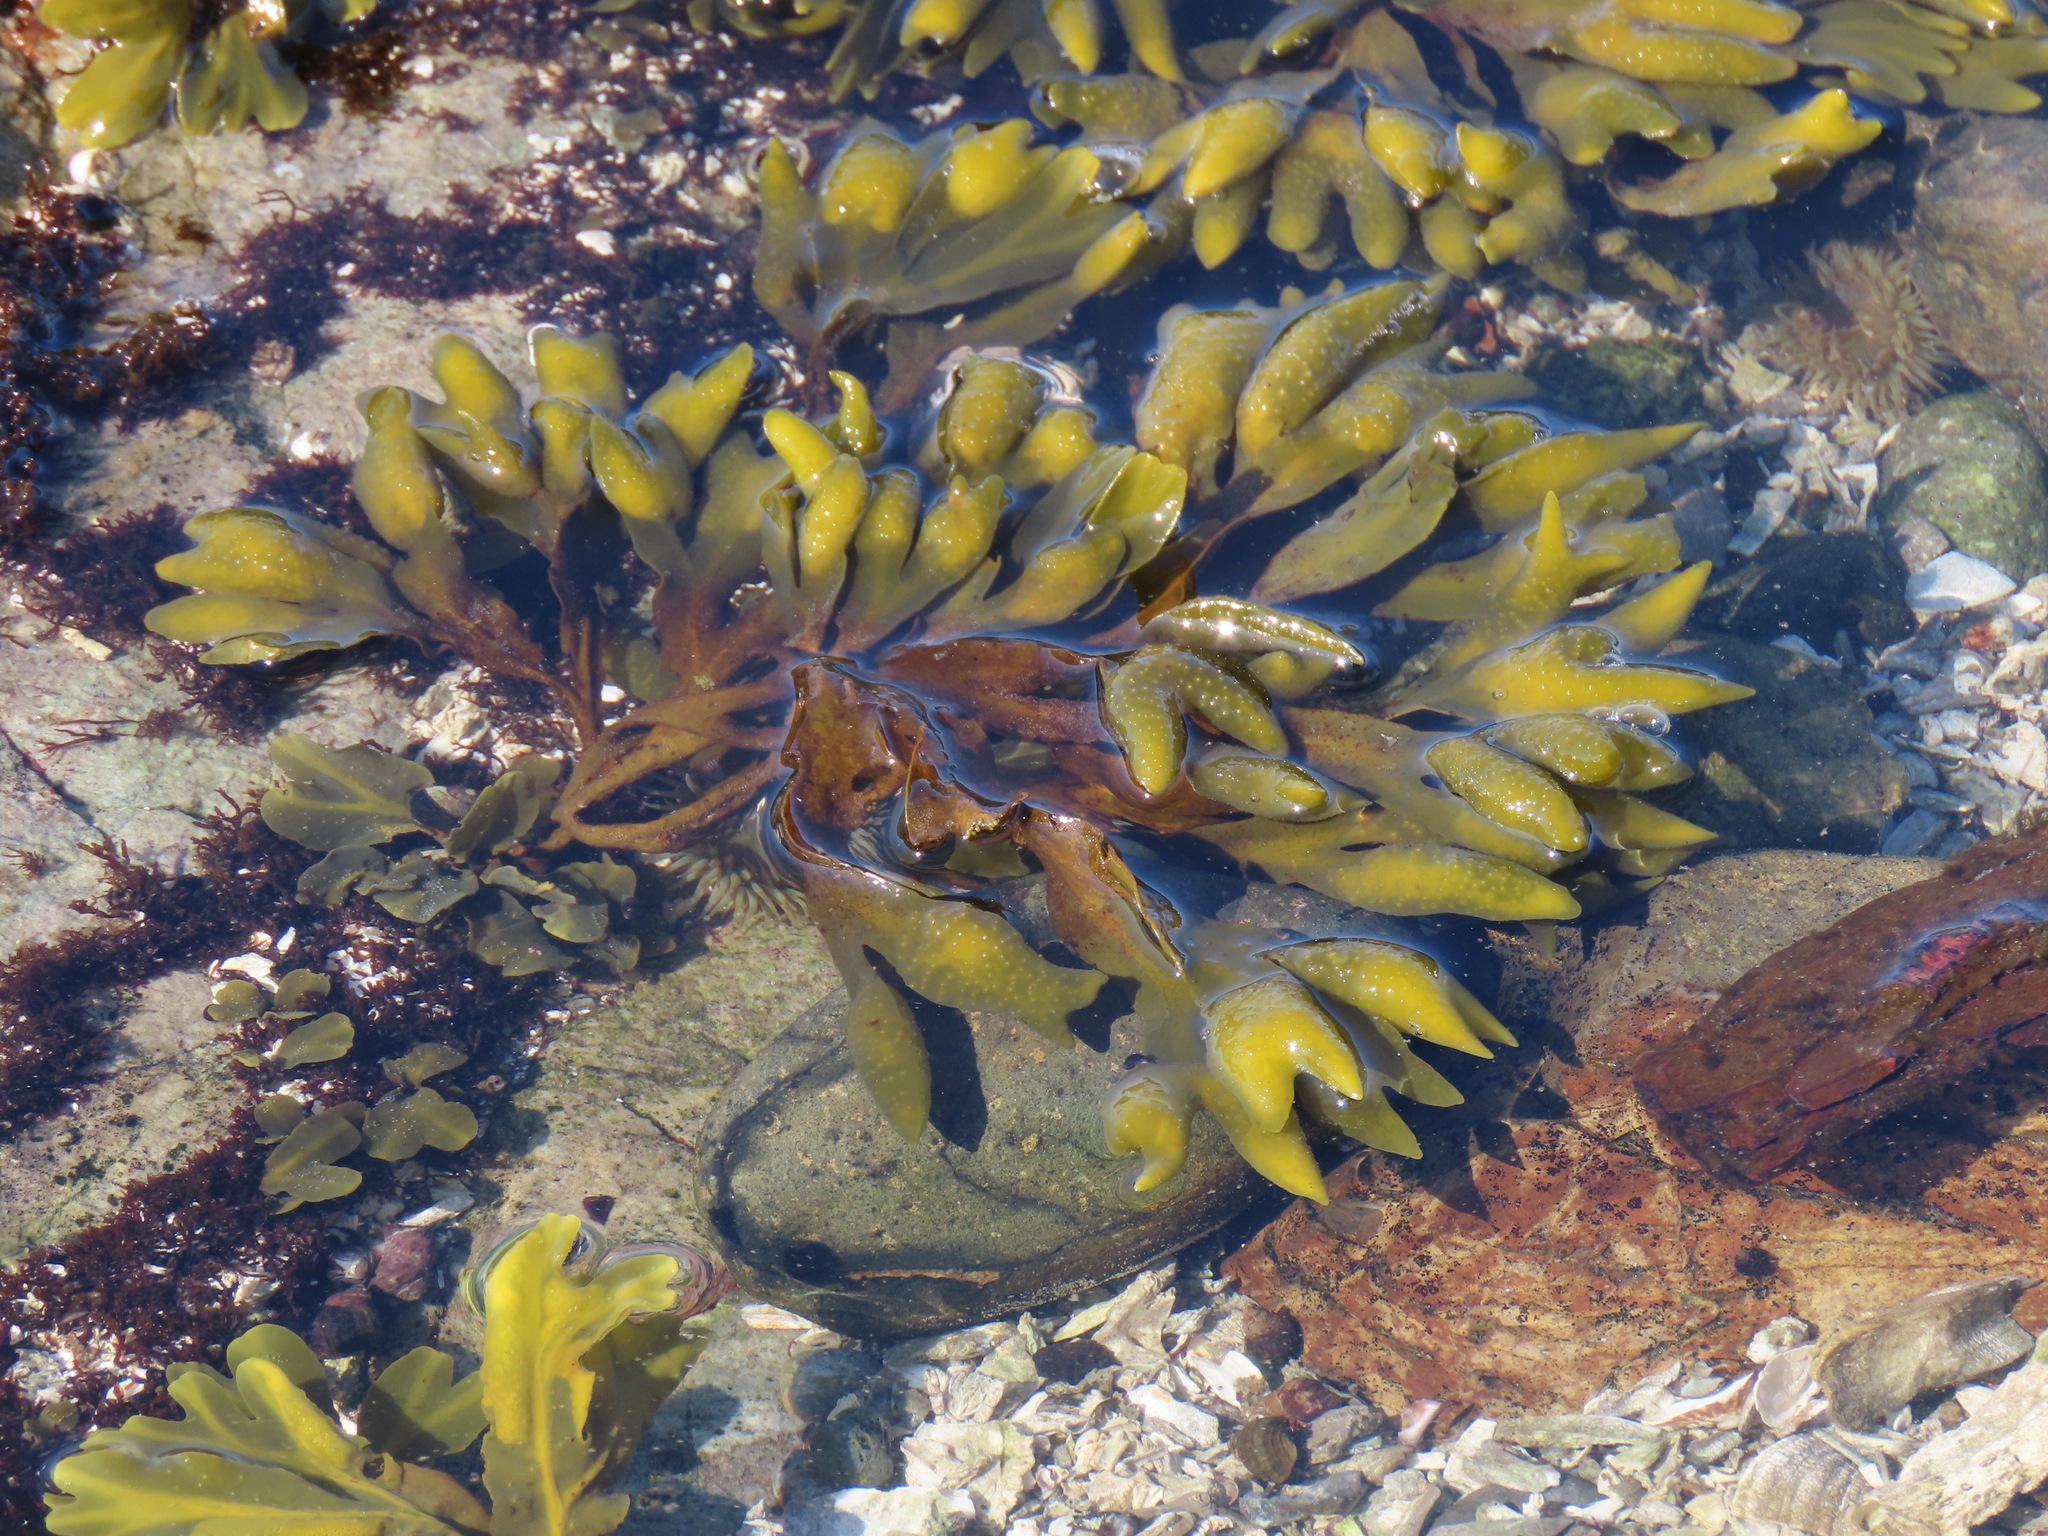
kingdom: Chromista
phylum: Ochrophyta
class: Phaeophyceae
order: Fucales
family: Fucaceae
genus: Fucus
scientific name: Fucus distichus
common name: Rockweed
